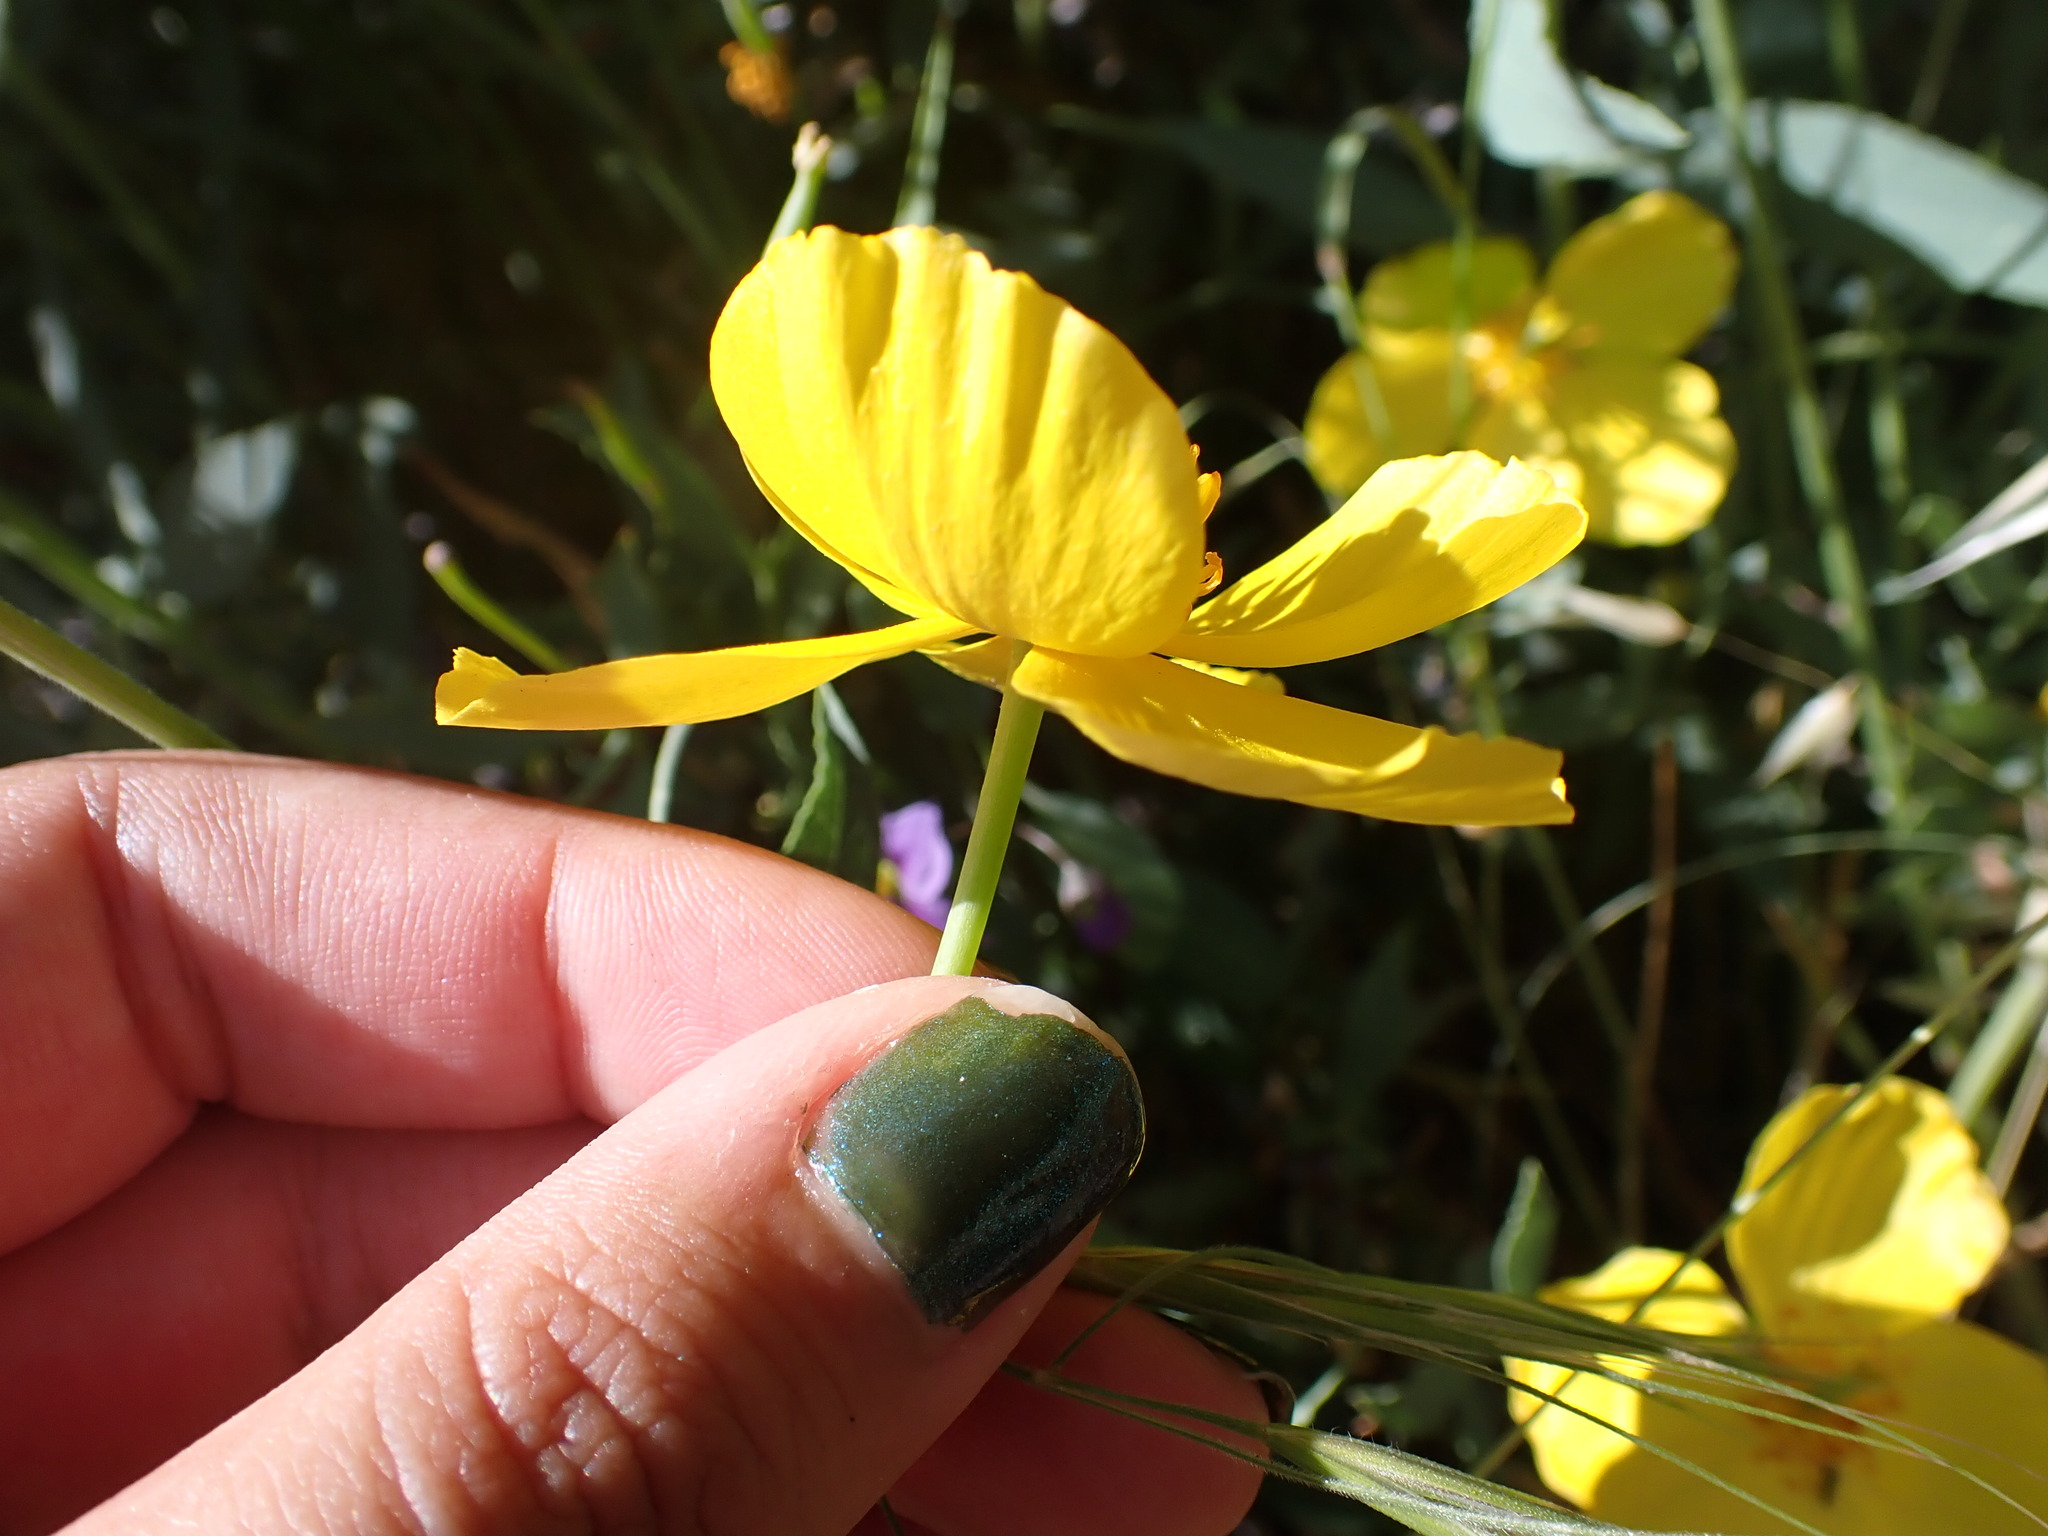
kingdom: Plantae
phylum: Tracheophyta
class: Magnoliopsida
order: Ranunculales
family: Papaveraceae
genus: Dendromecon
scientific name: Dendromecon rigida
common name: Tree poppy
